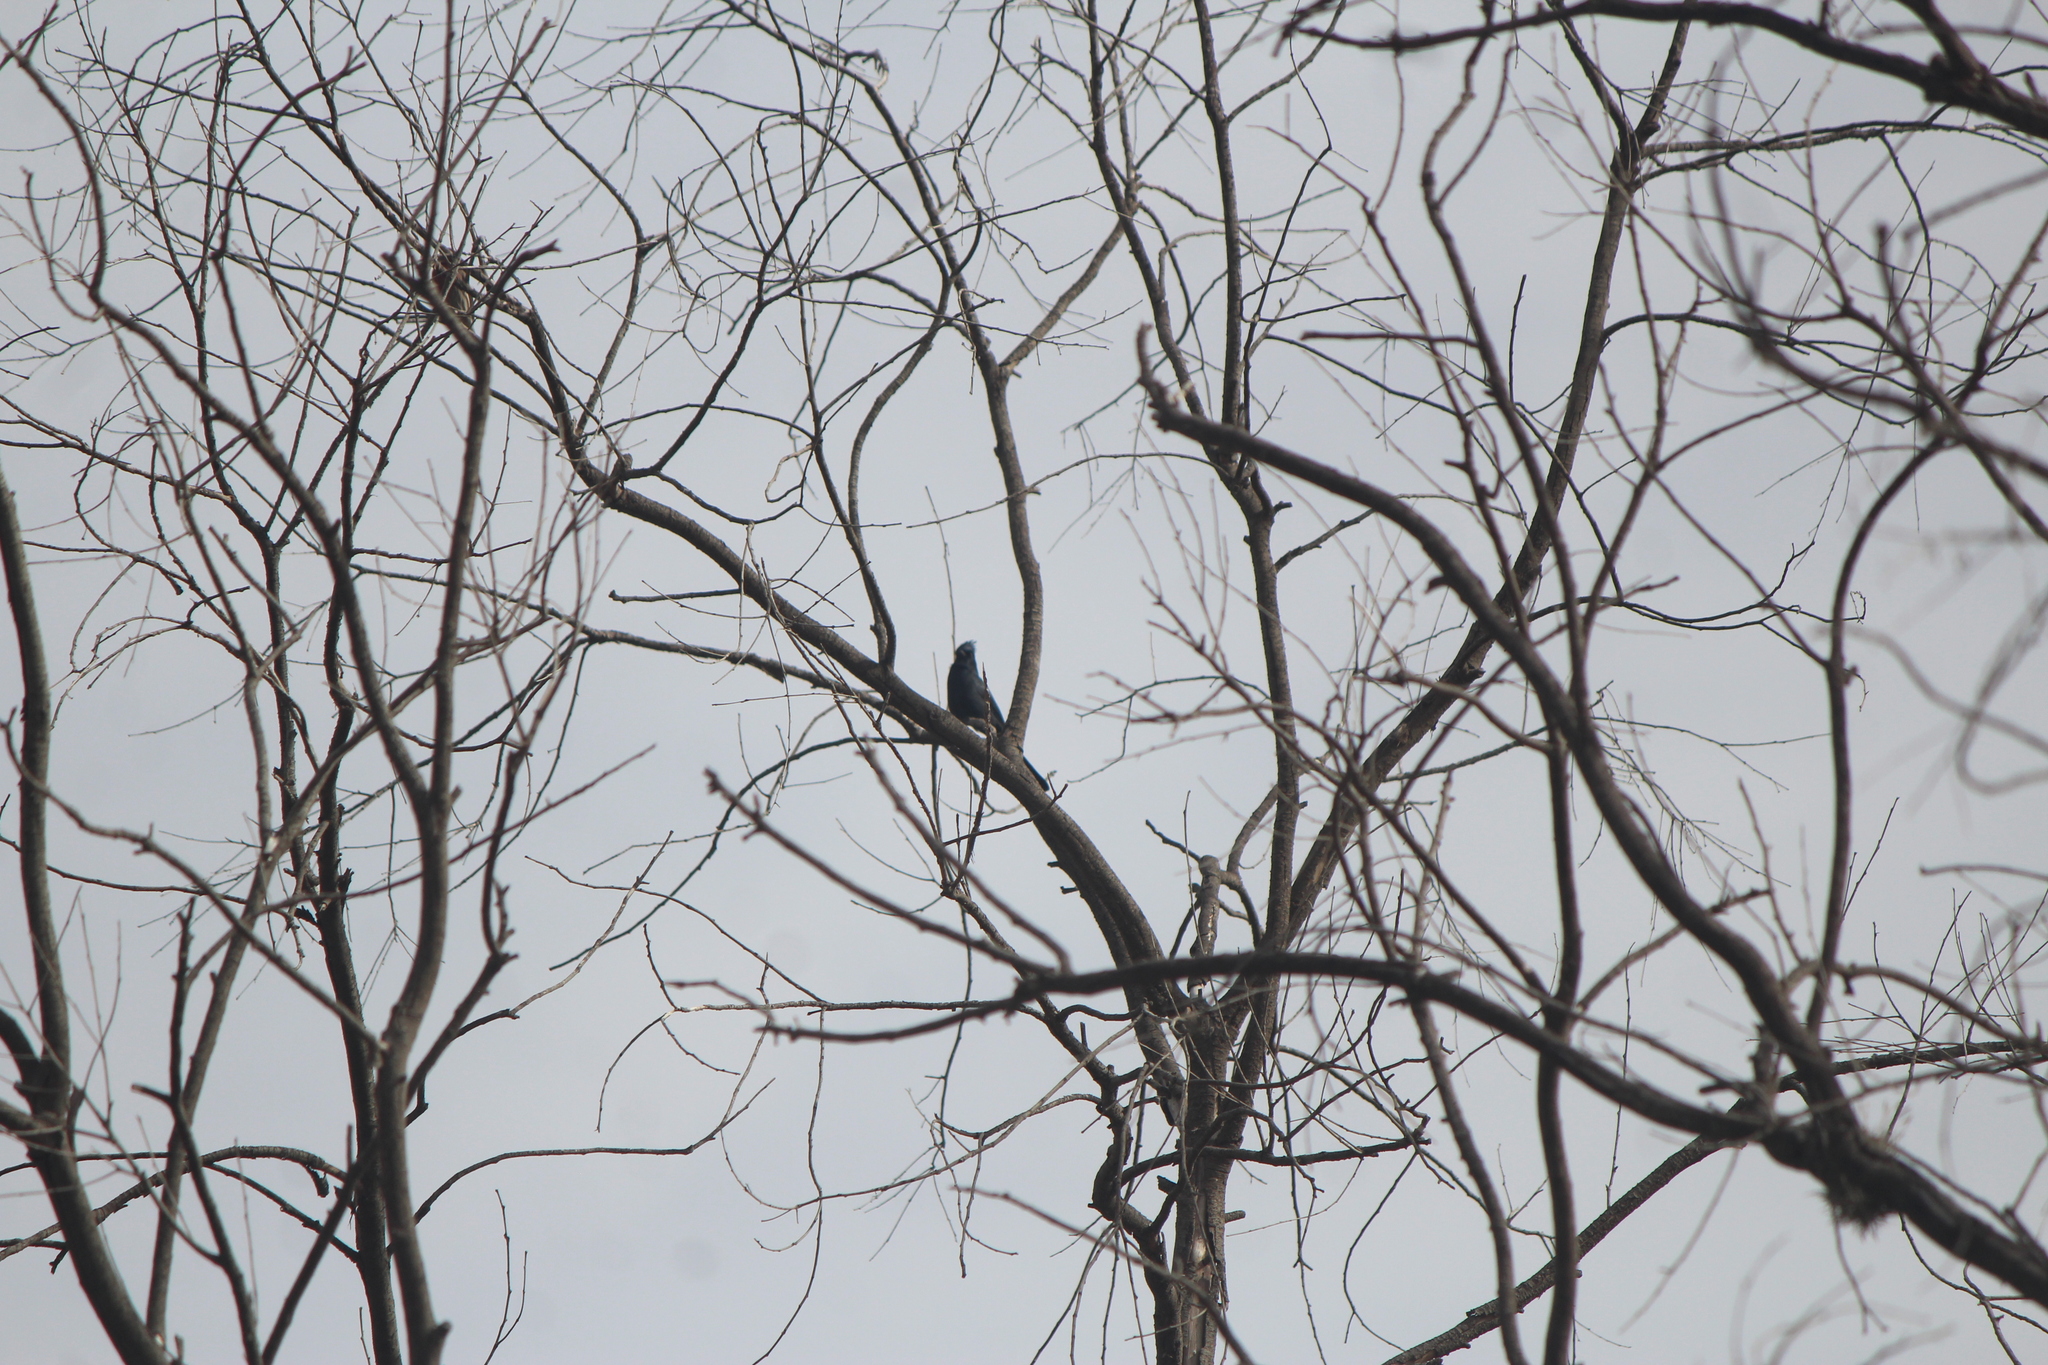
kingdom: Animalia
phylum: Chordata
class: Aves
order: Passeriformes
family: Ptilogonatidae
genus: Phainopepla
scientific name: Phainopepla nitens
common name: Phainopepla
